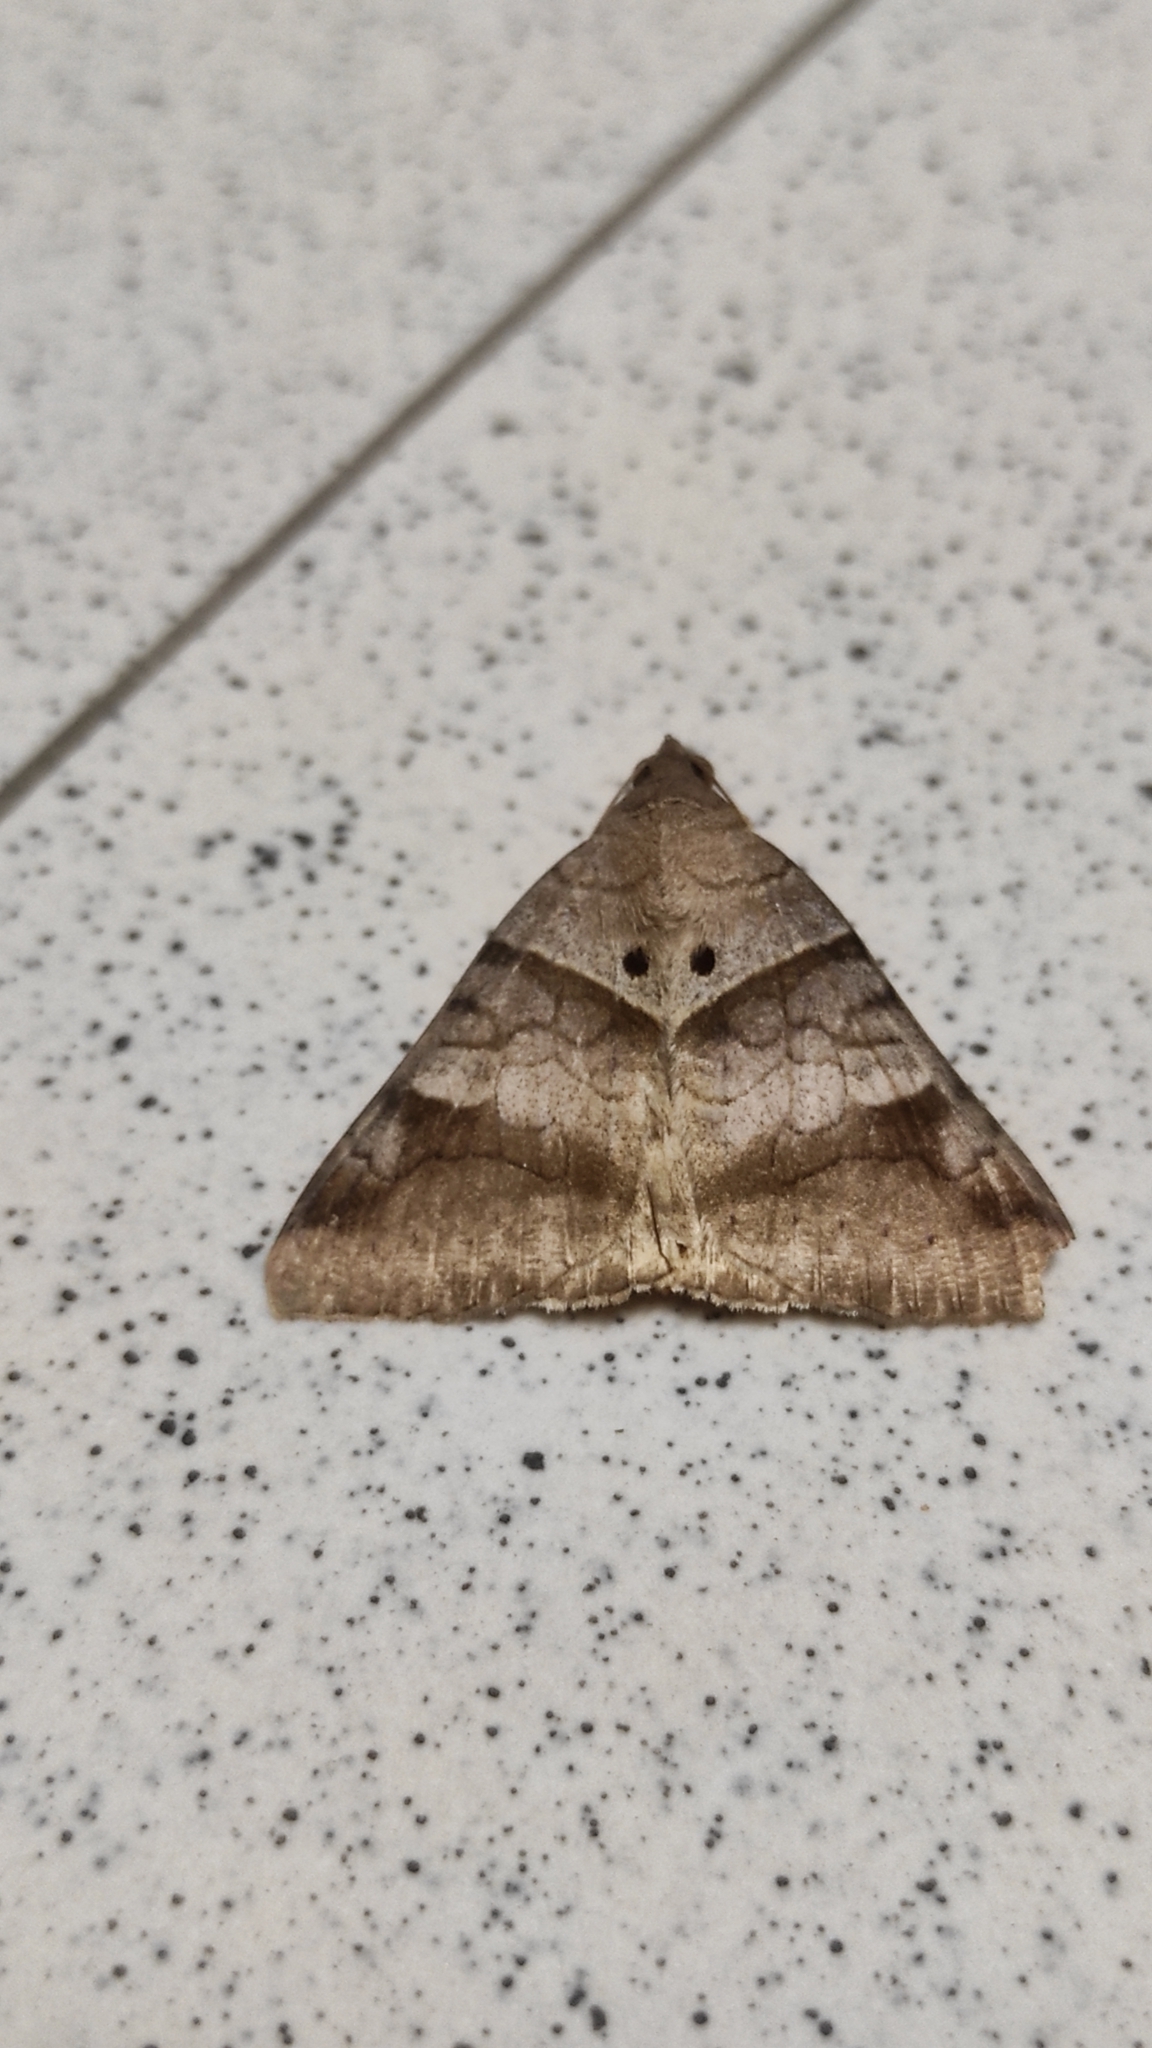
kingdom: Animalia
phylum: Arthropoda
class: Insecta
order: Lepidoptera
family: Erebidae
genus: Mocis
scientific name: Mocis undata
